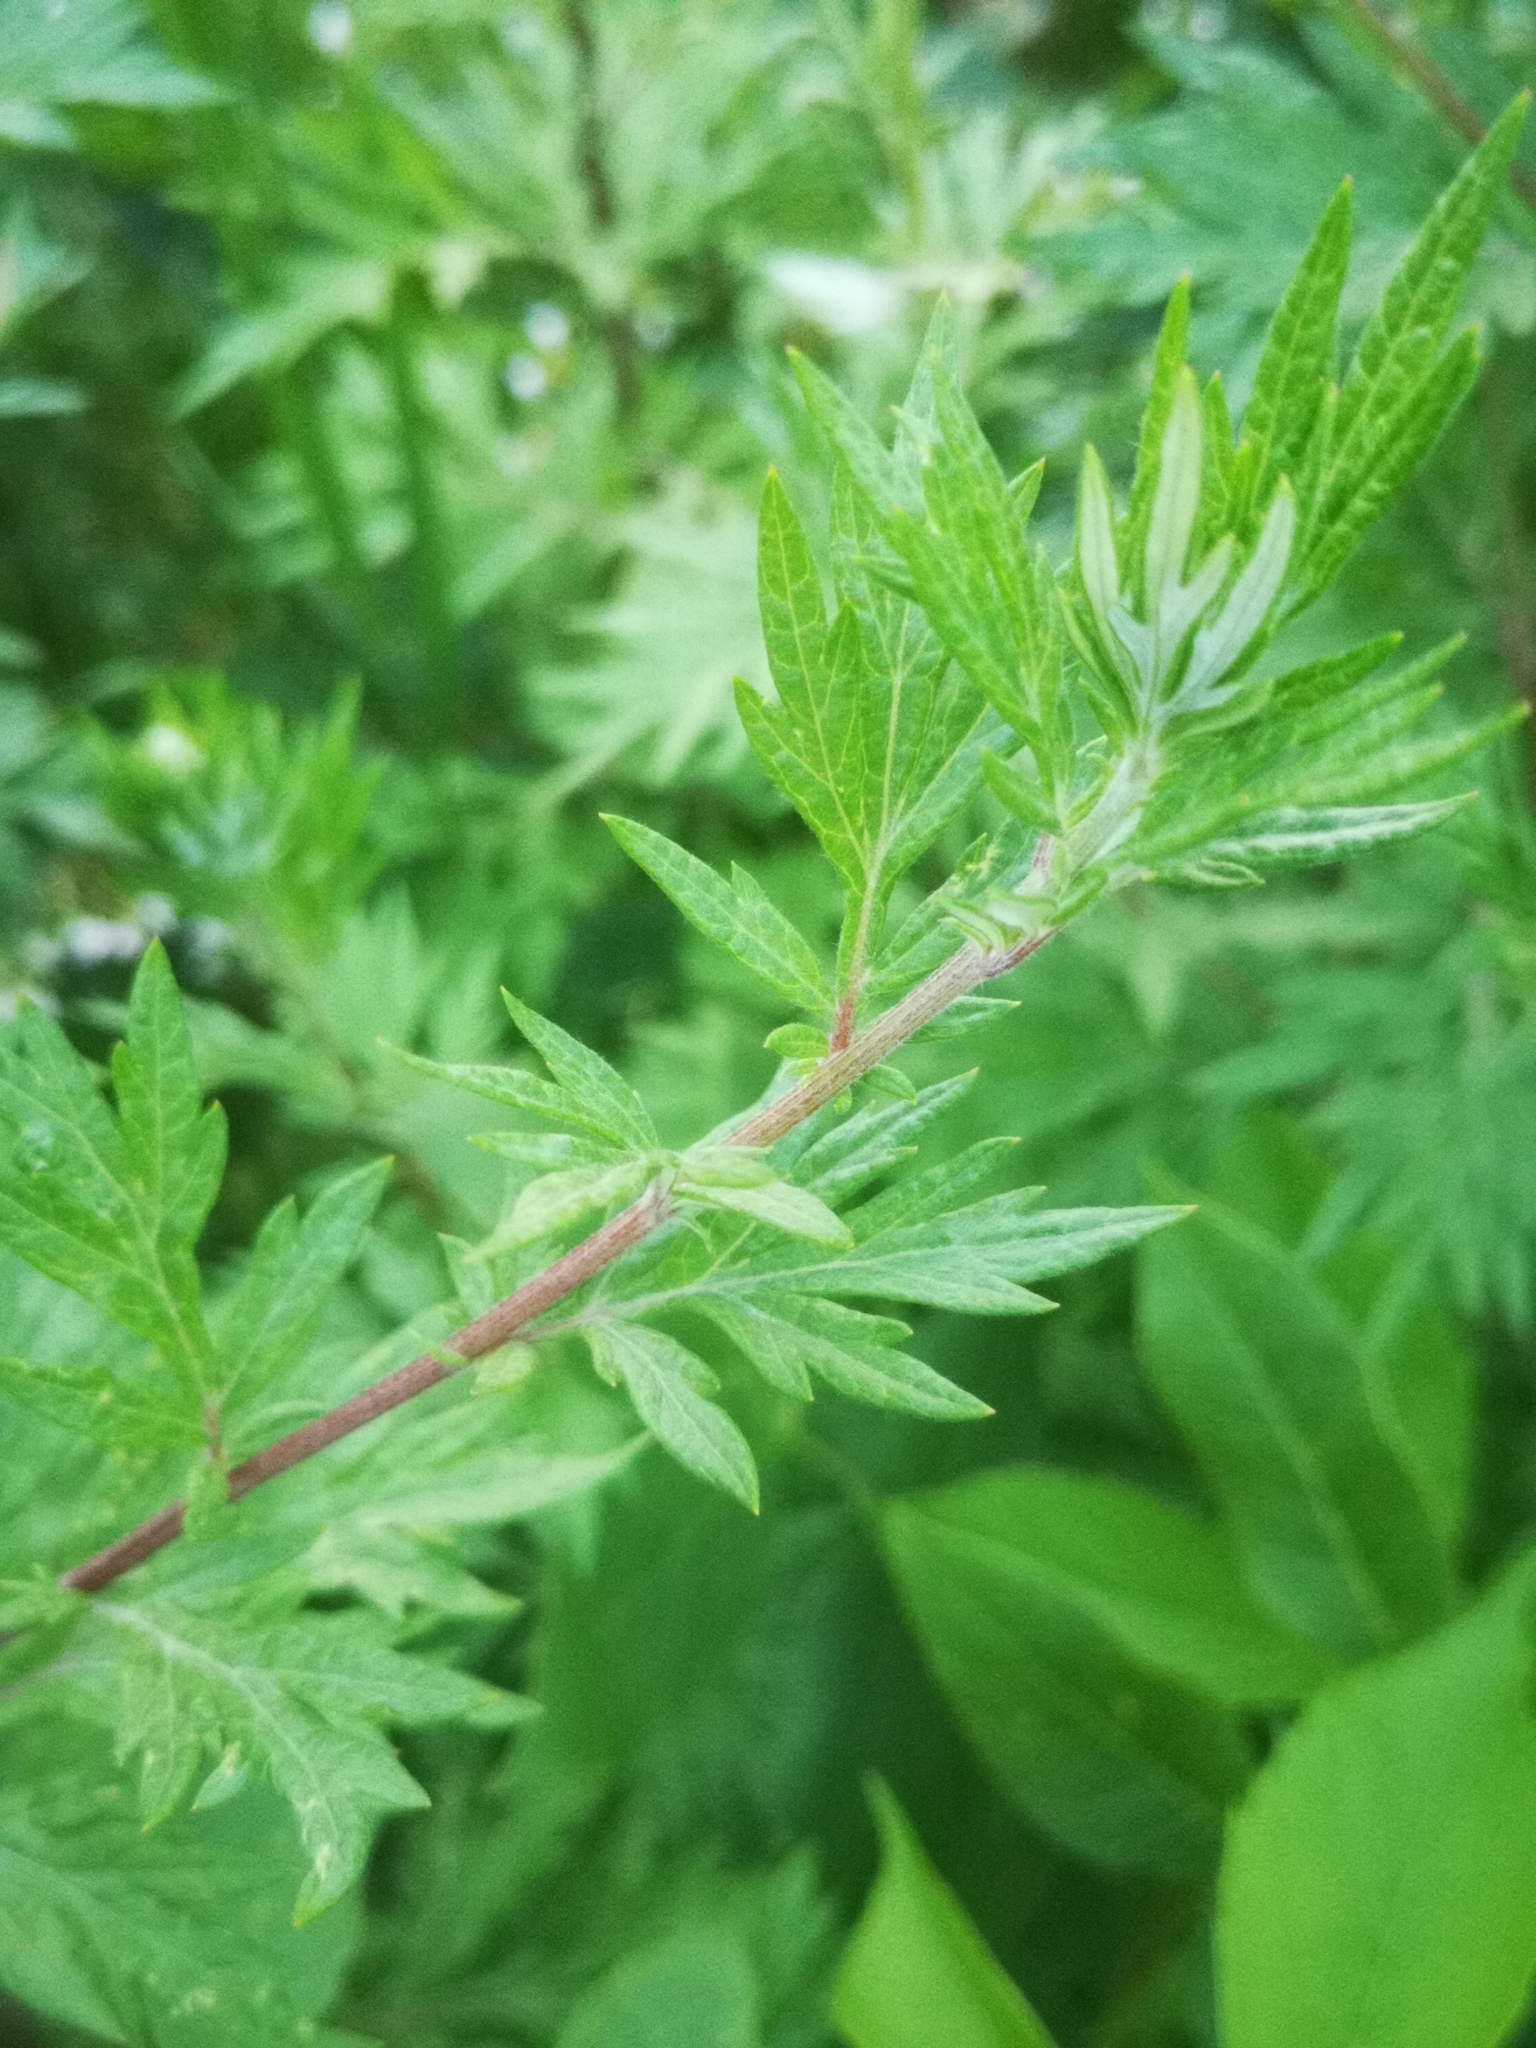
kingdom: Plantae
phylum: Tracheophyta
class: Magnoliopsida
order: Asterales
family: Asteraceae
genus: Artemisia
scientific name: Artemisia vulgaris
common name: Mugwort
